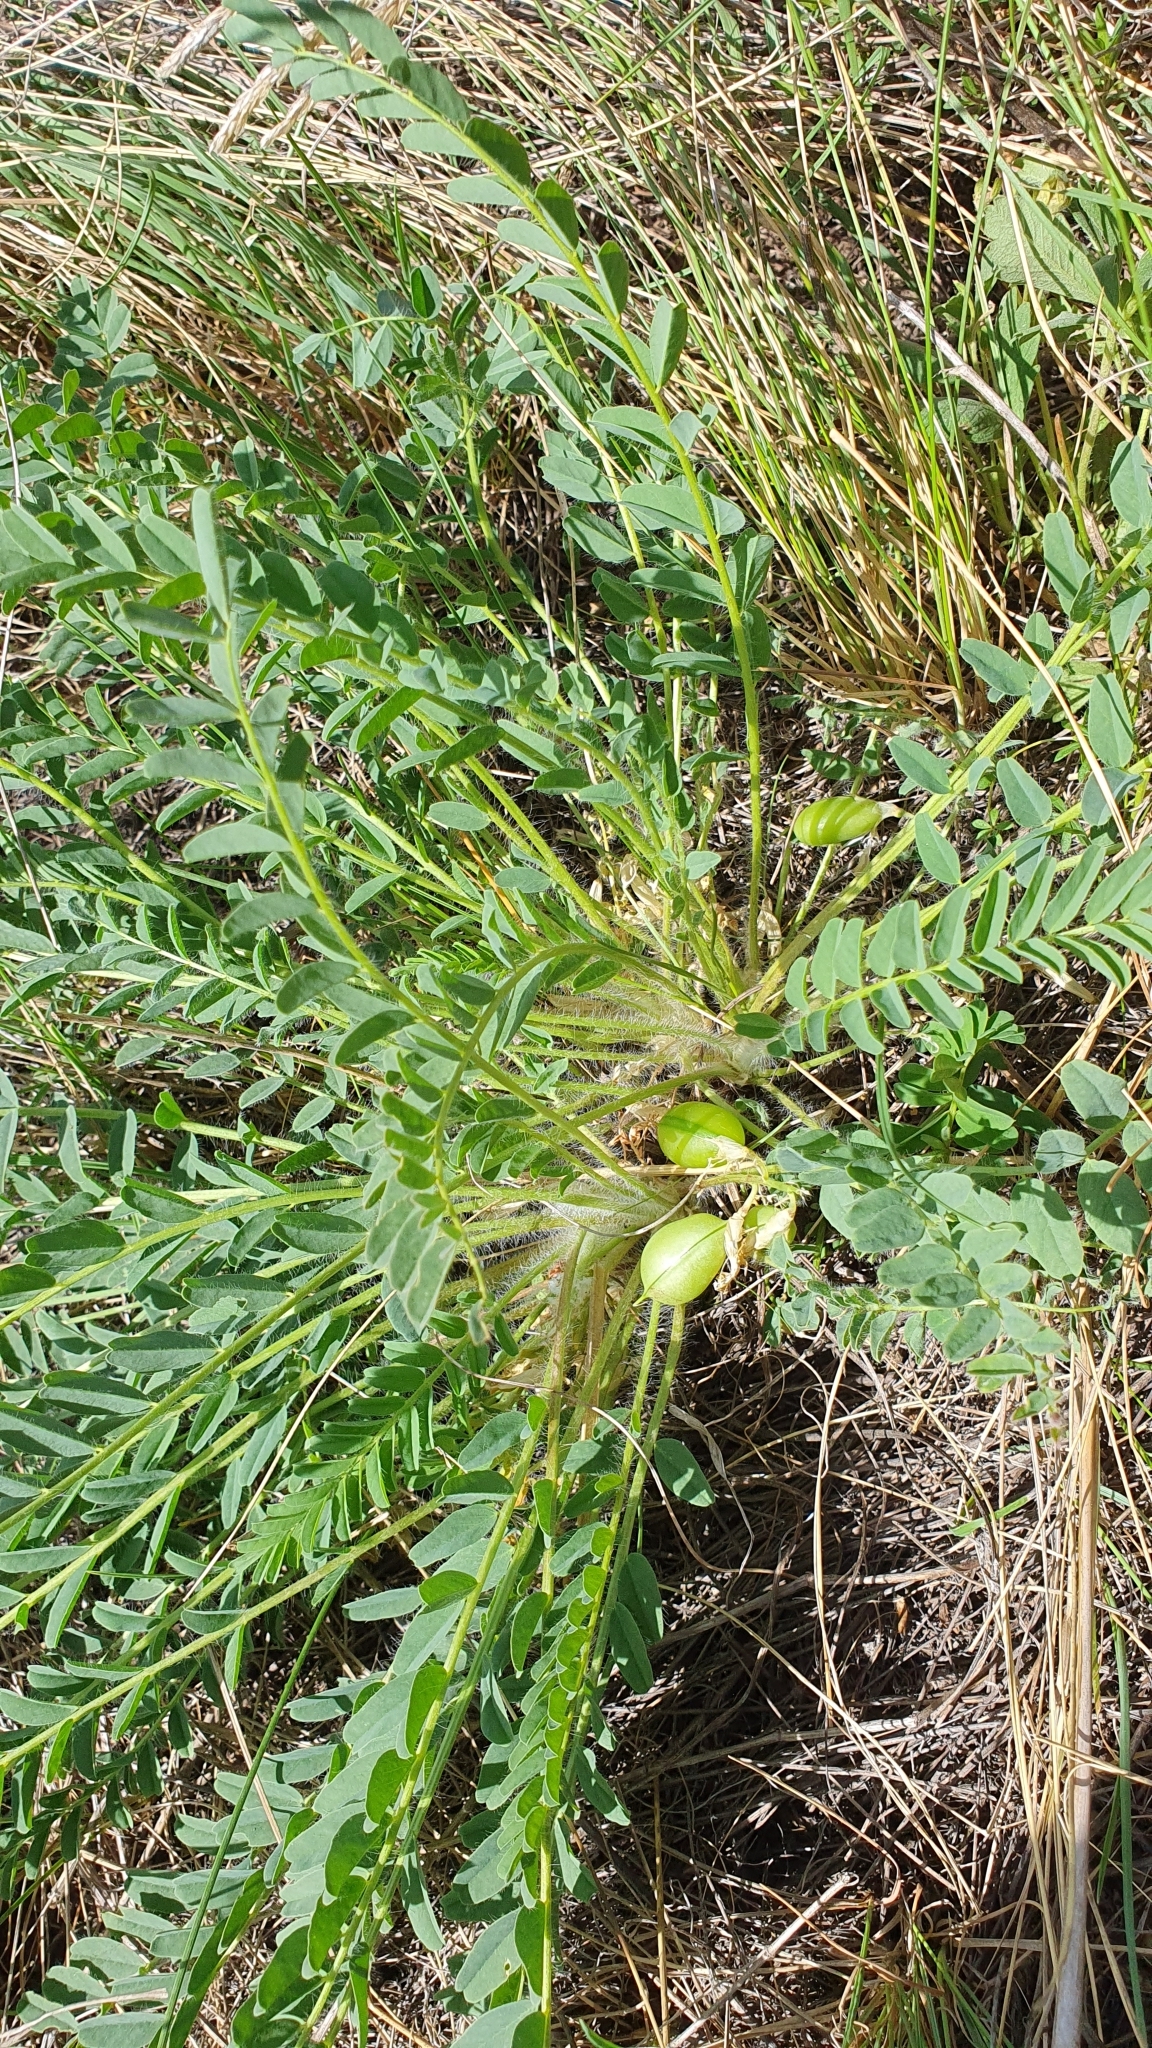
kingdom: Plantae
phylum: Tracheophyta
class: Magnoliopsida
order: Fabales
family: Fabaceae
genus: Astragalus
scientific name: Astragalus wolgensis
